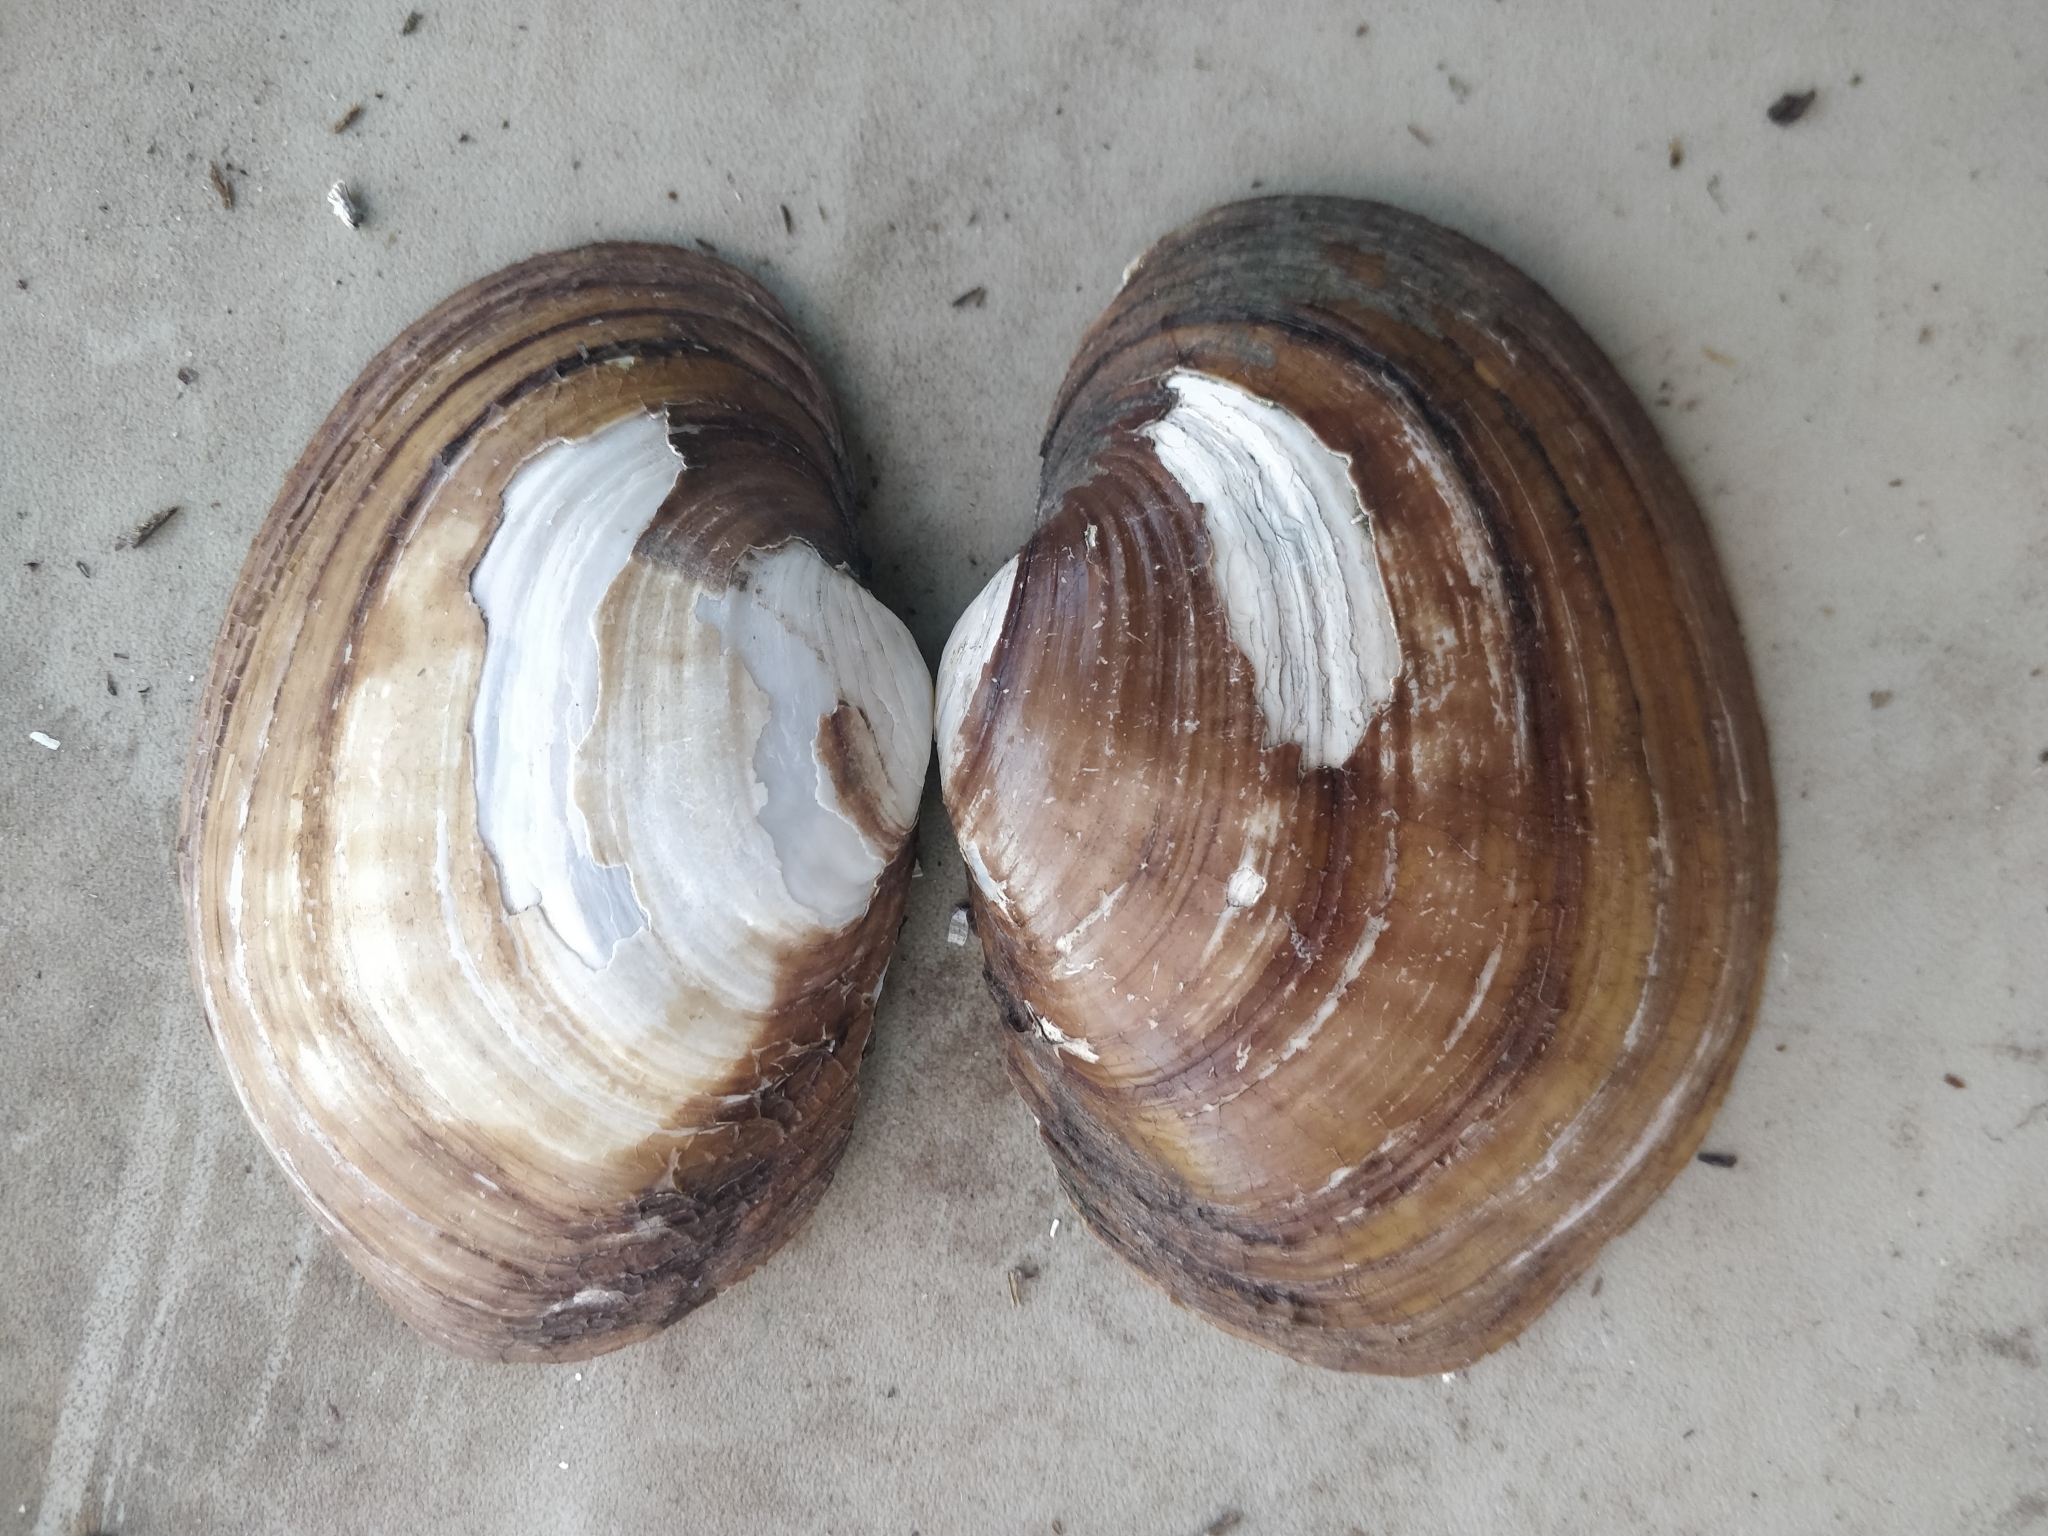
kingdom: Animalia
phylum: Mollusca
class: Bivalvia
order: Unionida
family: Unionidae
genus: Lampsilis
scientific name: Lampsilis cardium
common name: Plain pocketbook
